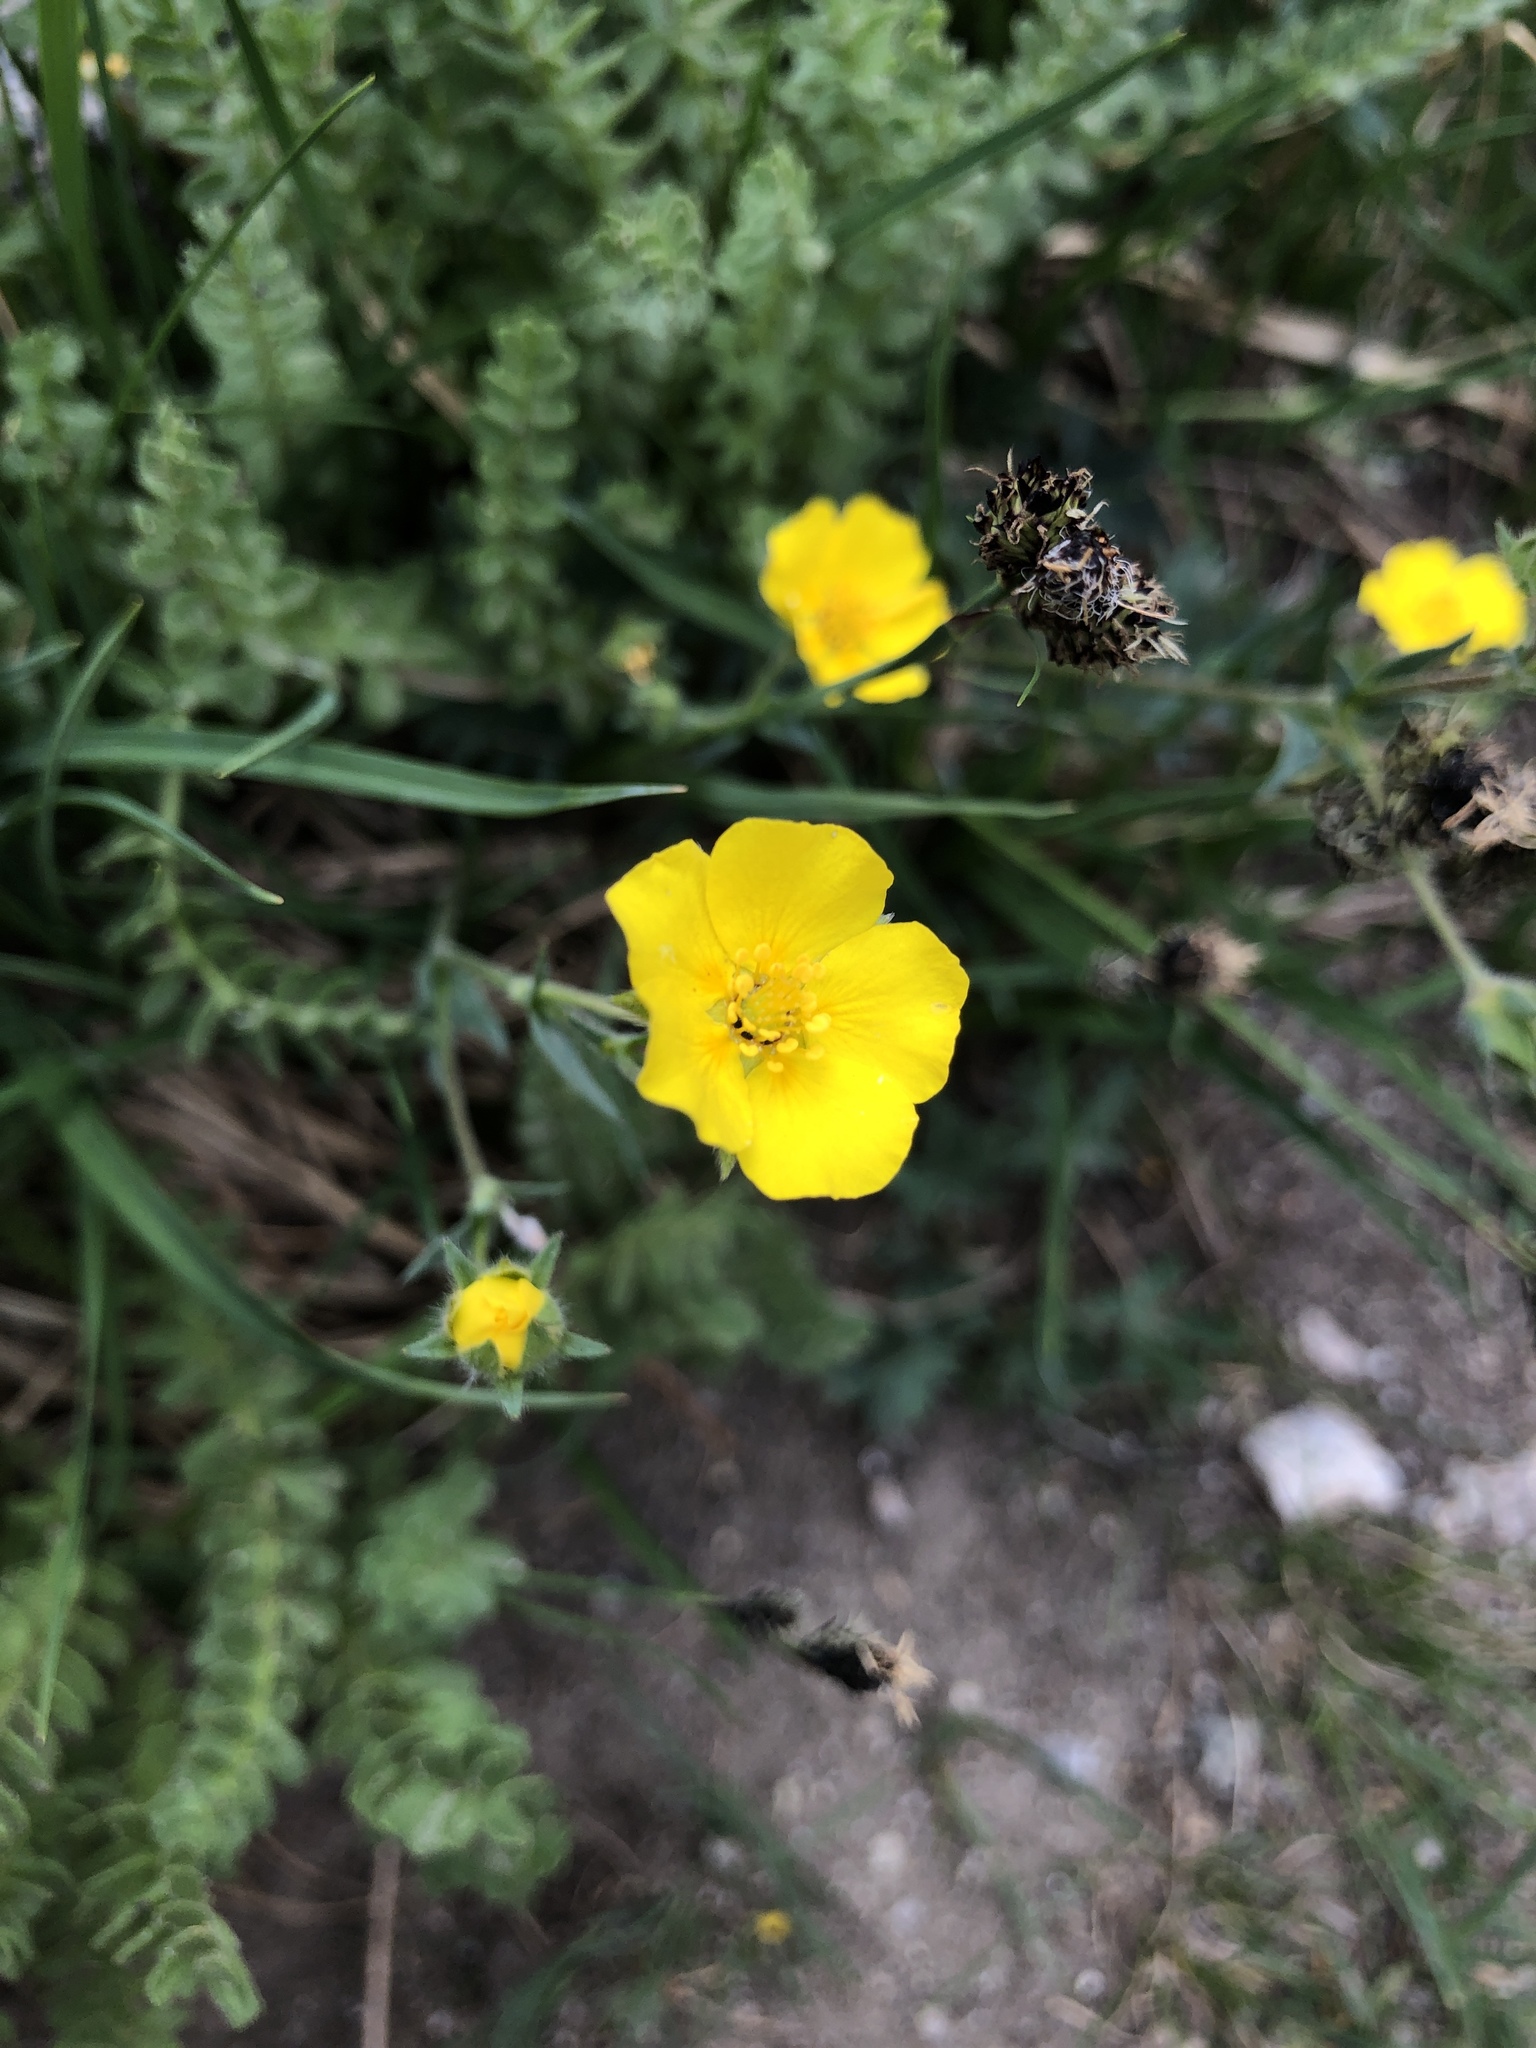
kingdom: Plantae
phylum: Tracheophyta
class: Magnoliopsida
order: Rosales
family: Rosaceae
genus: Geum
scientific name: Geum rossii
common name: Alpine avens
